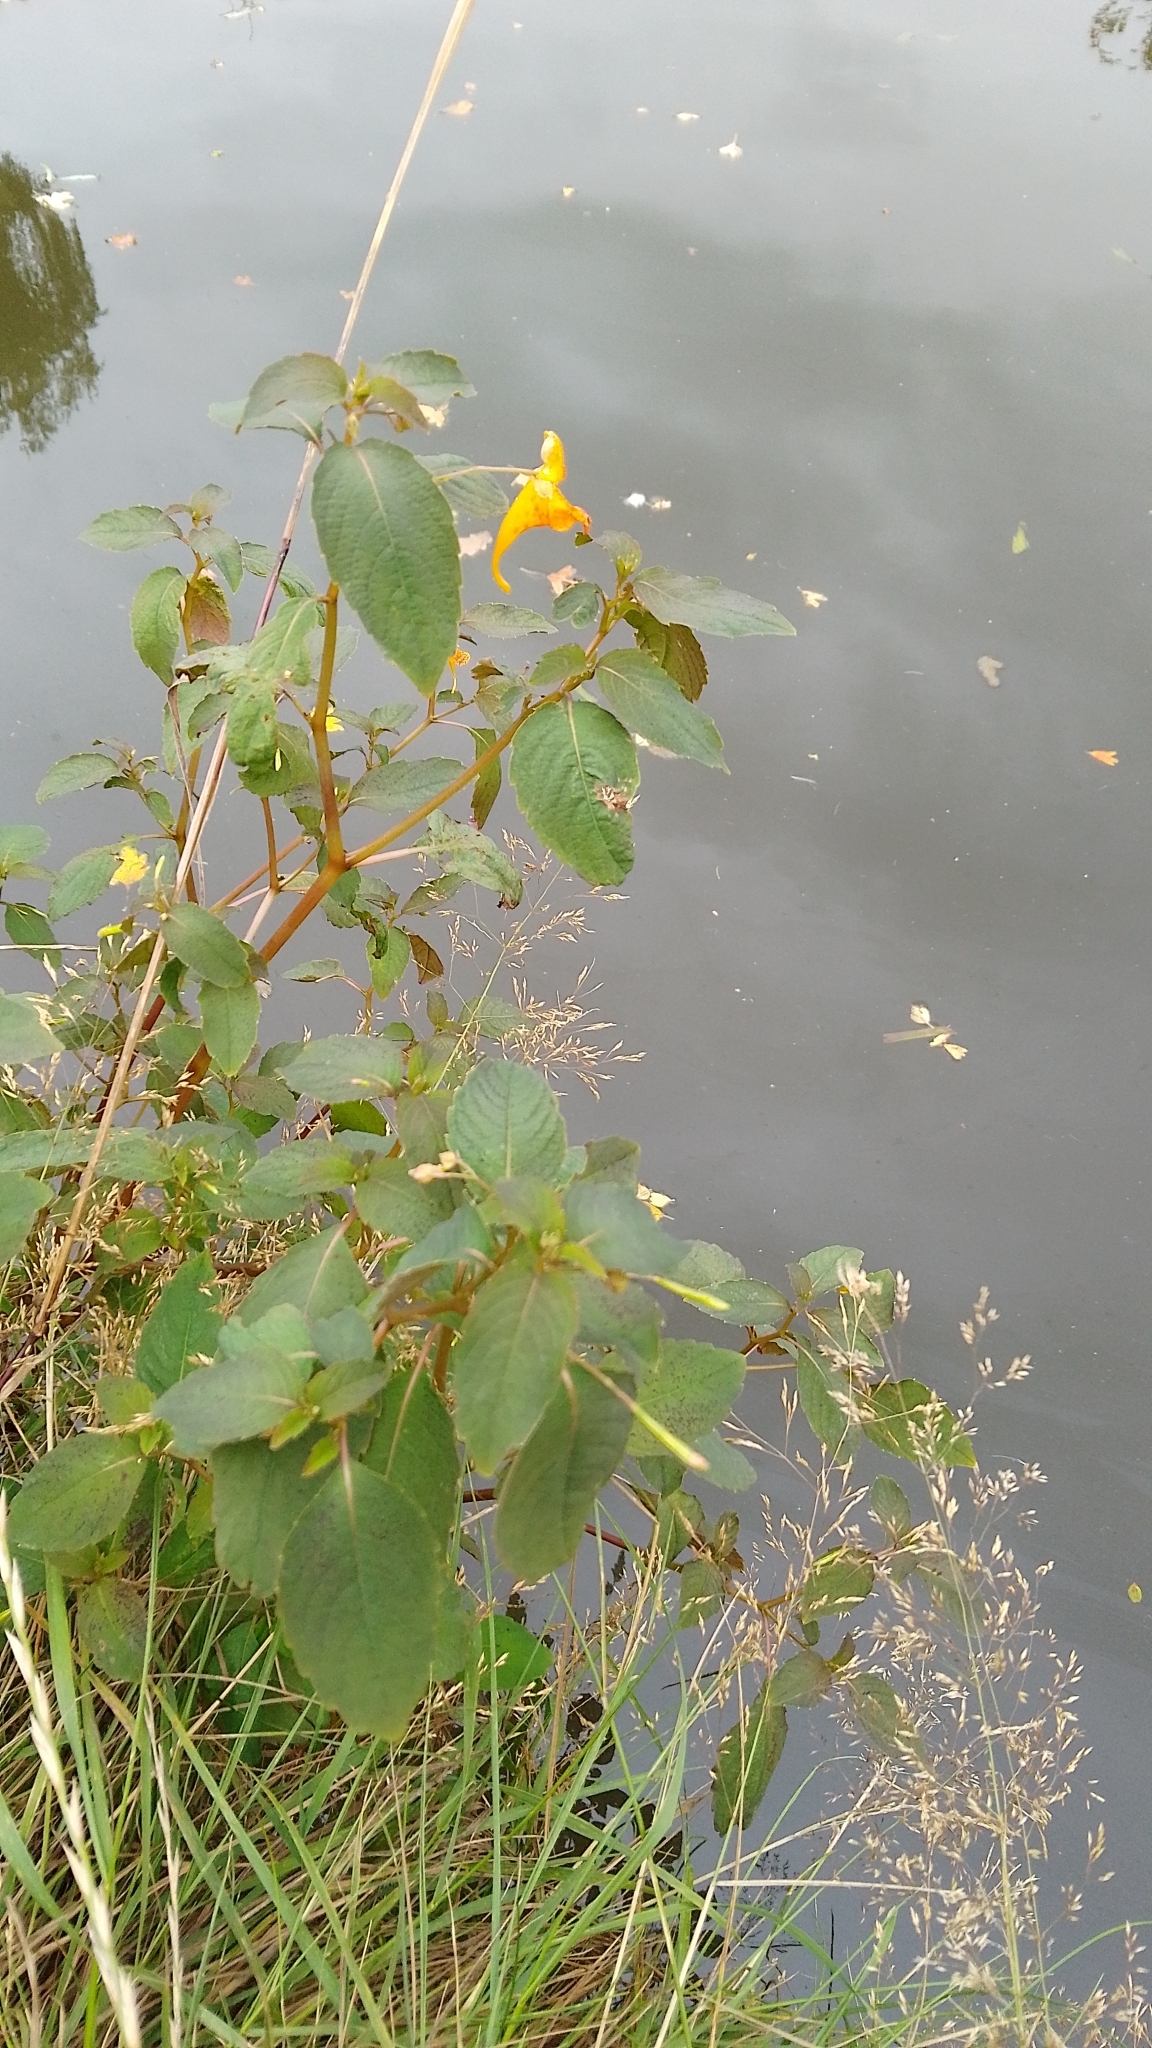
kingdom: Plantae
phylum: Tracheophyta
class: Magnoliopsida
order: Ericales
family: Balsaminaceae
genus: Impatiens
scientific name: Impatiens capensis
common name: Orange balsam
